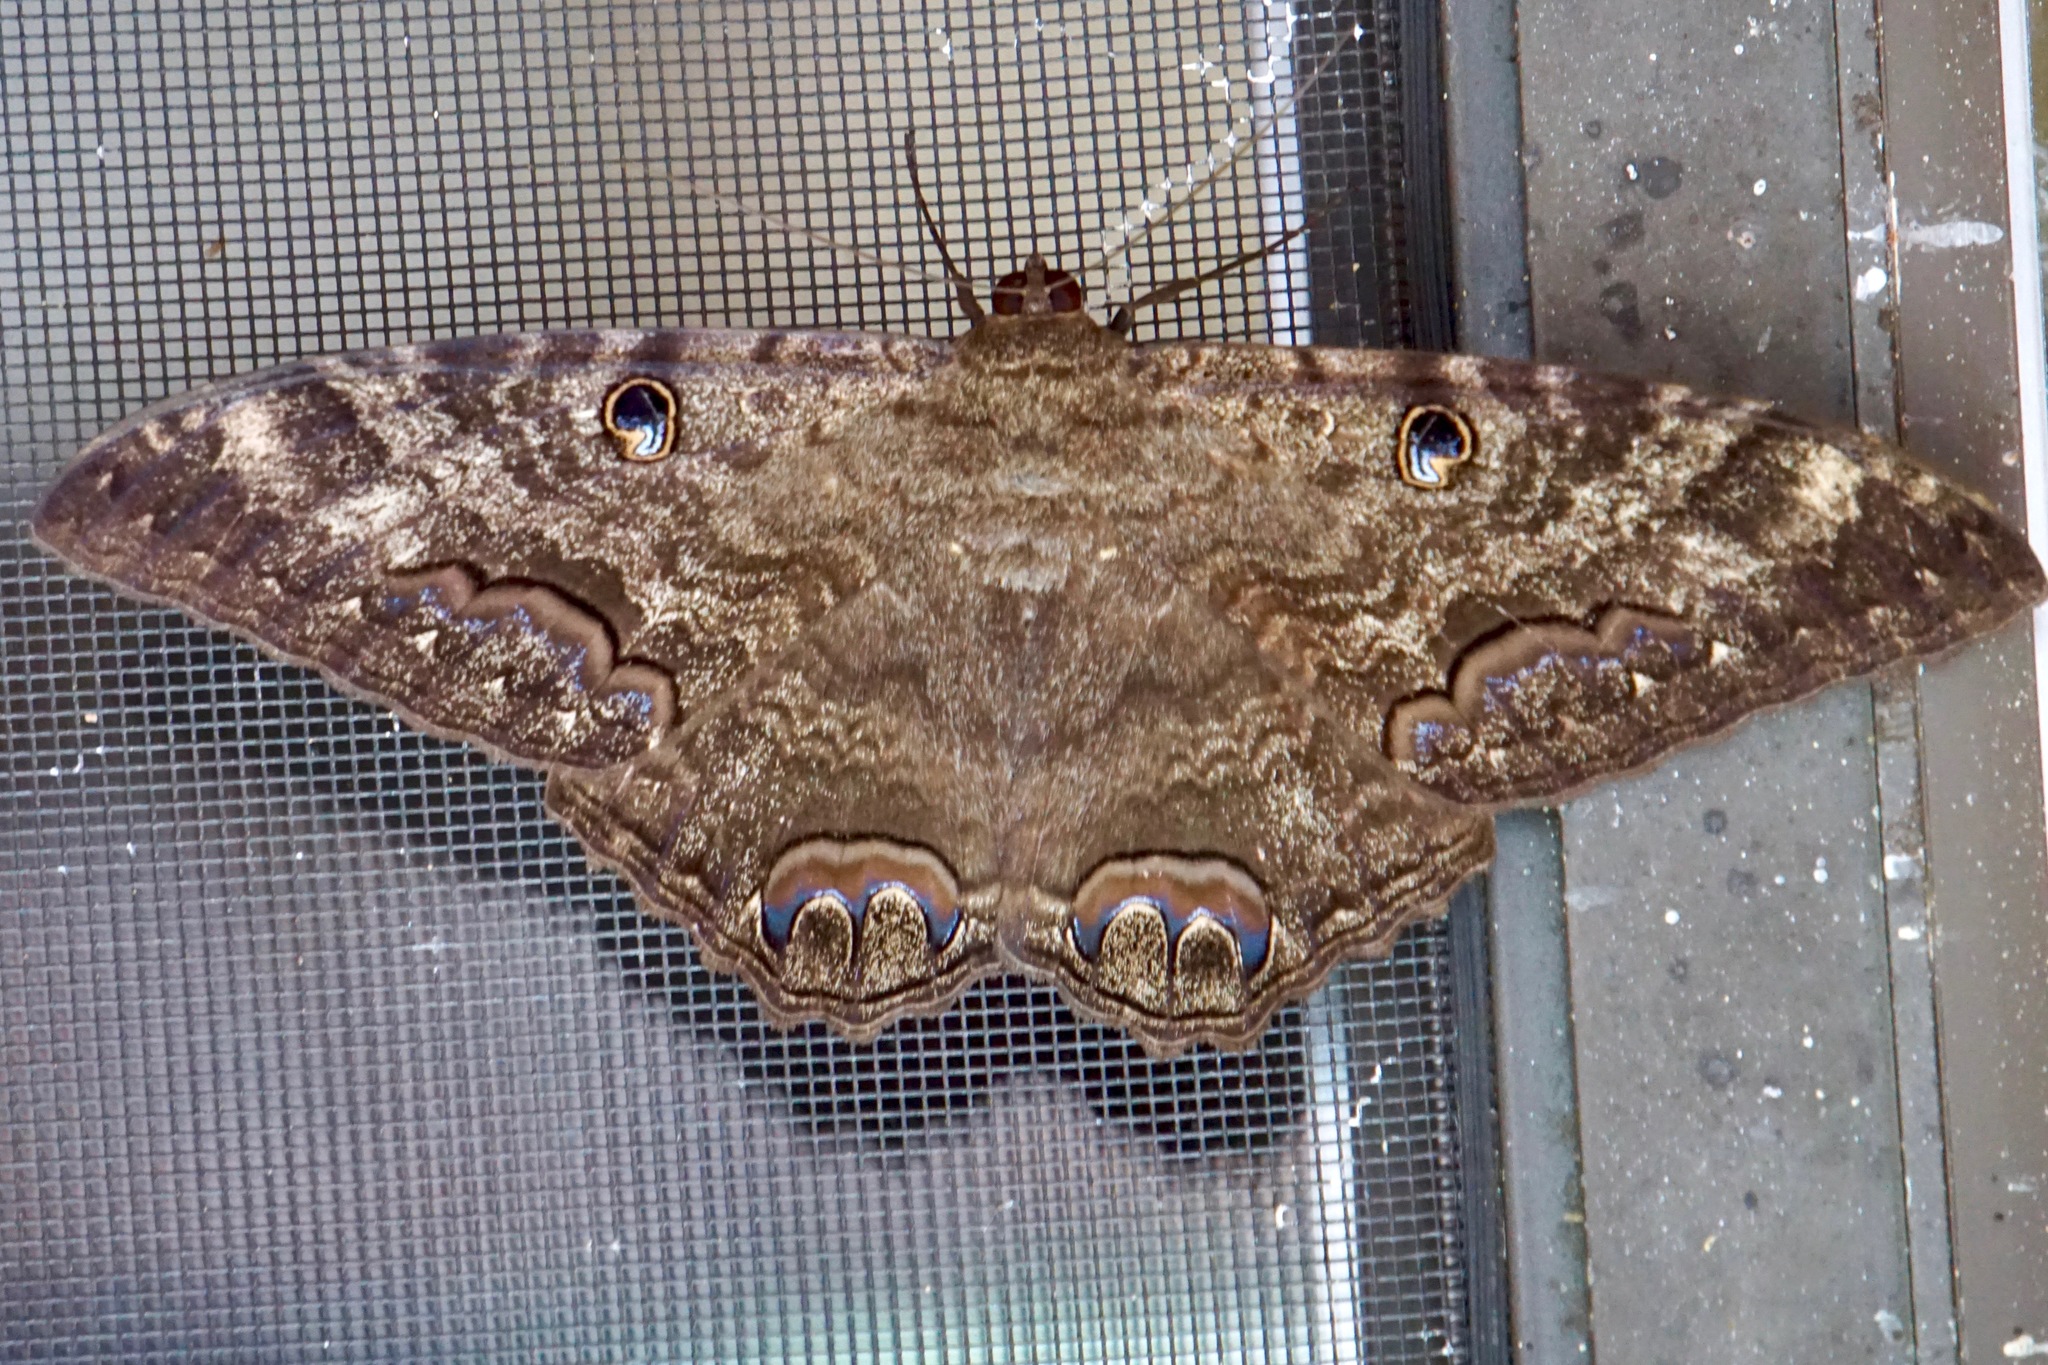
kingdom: Animalia
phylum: Arthropoda
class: Insecta
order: Lepidoptera
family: Erebidae
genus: Ascalapha
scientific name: Ascalapha odorata
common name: Black witch
